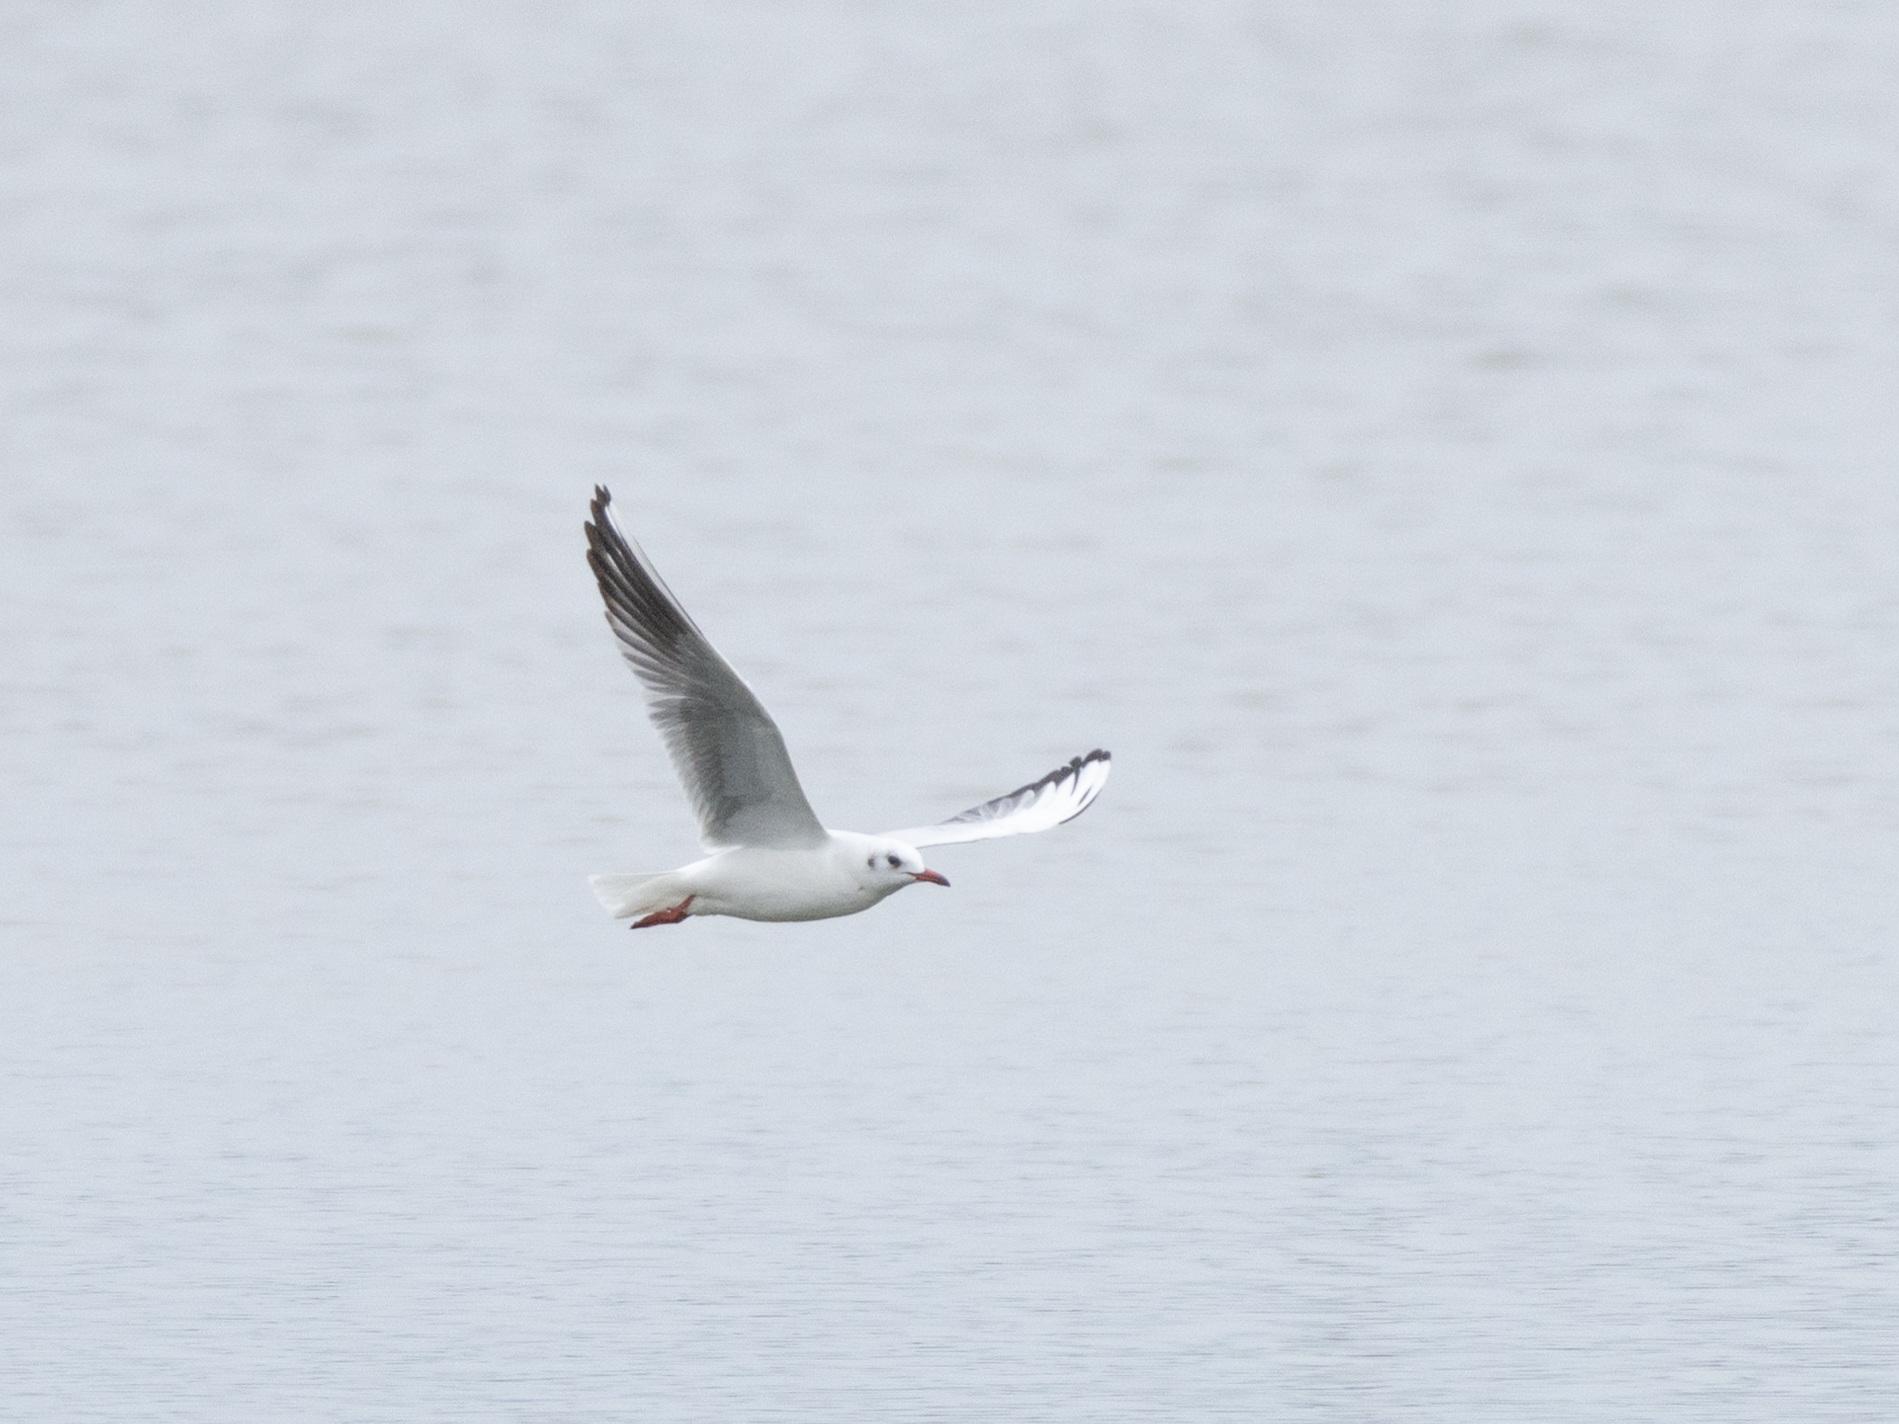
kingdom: Animalia
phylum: Chordata
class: Aves
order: Charadriiformes
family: Laridae
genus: Chroicocephalus
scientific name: Chroicocephalus ridibundus
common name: Black-headed gull
